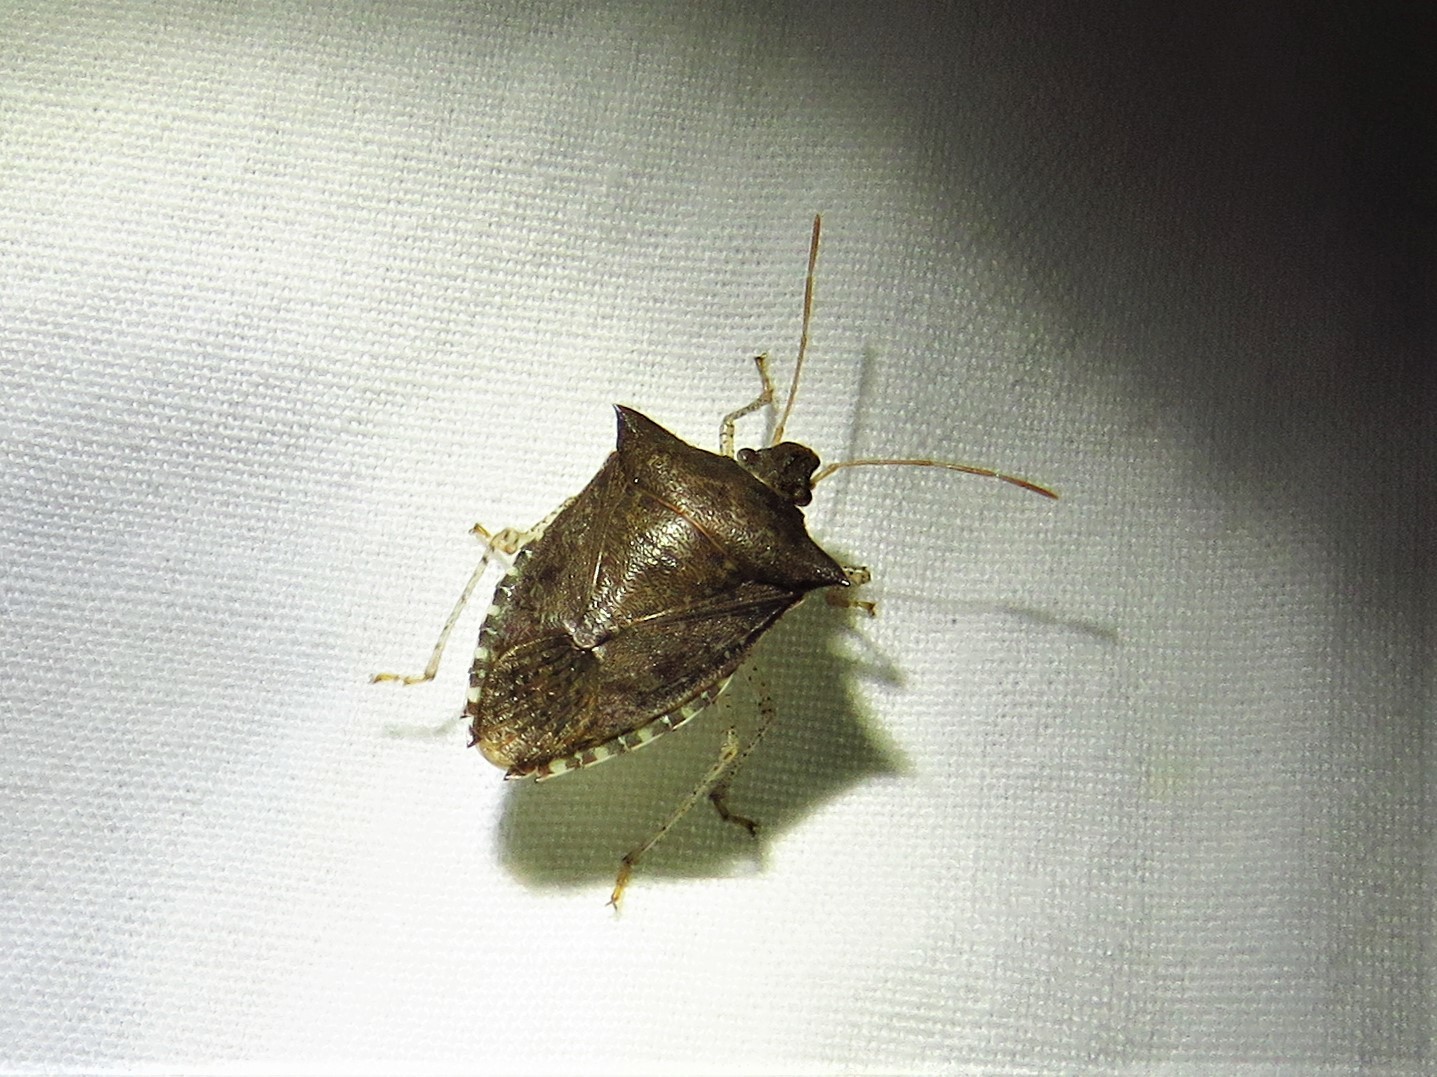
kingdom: Animalia
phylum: Arthropoda
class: Insecta
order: Hemiptera
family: Pentatomidae
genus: Euschistus
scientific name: Euschistus tristigmus
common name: Dusky stink bug
